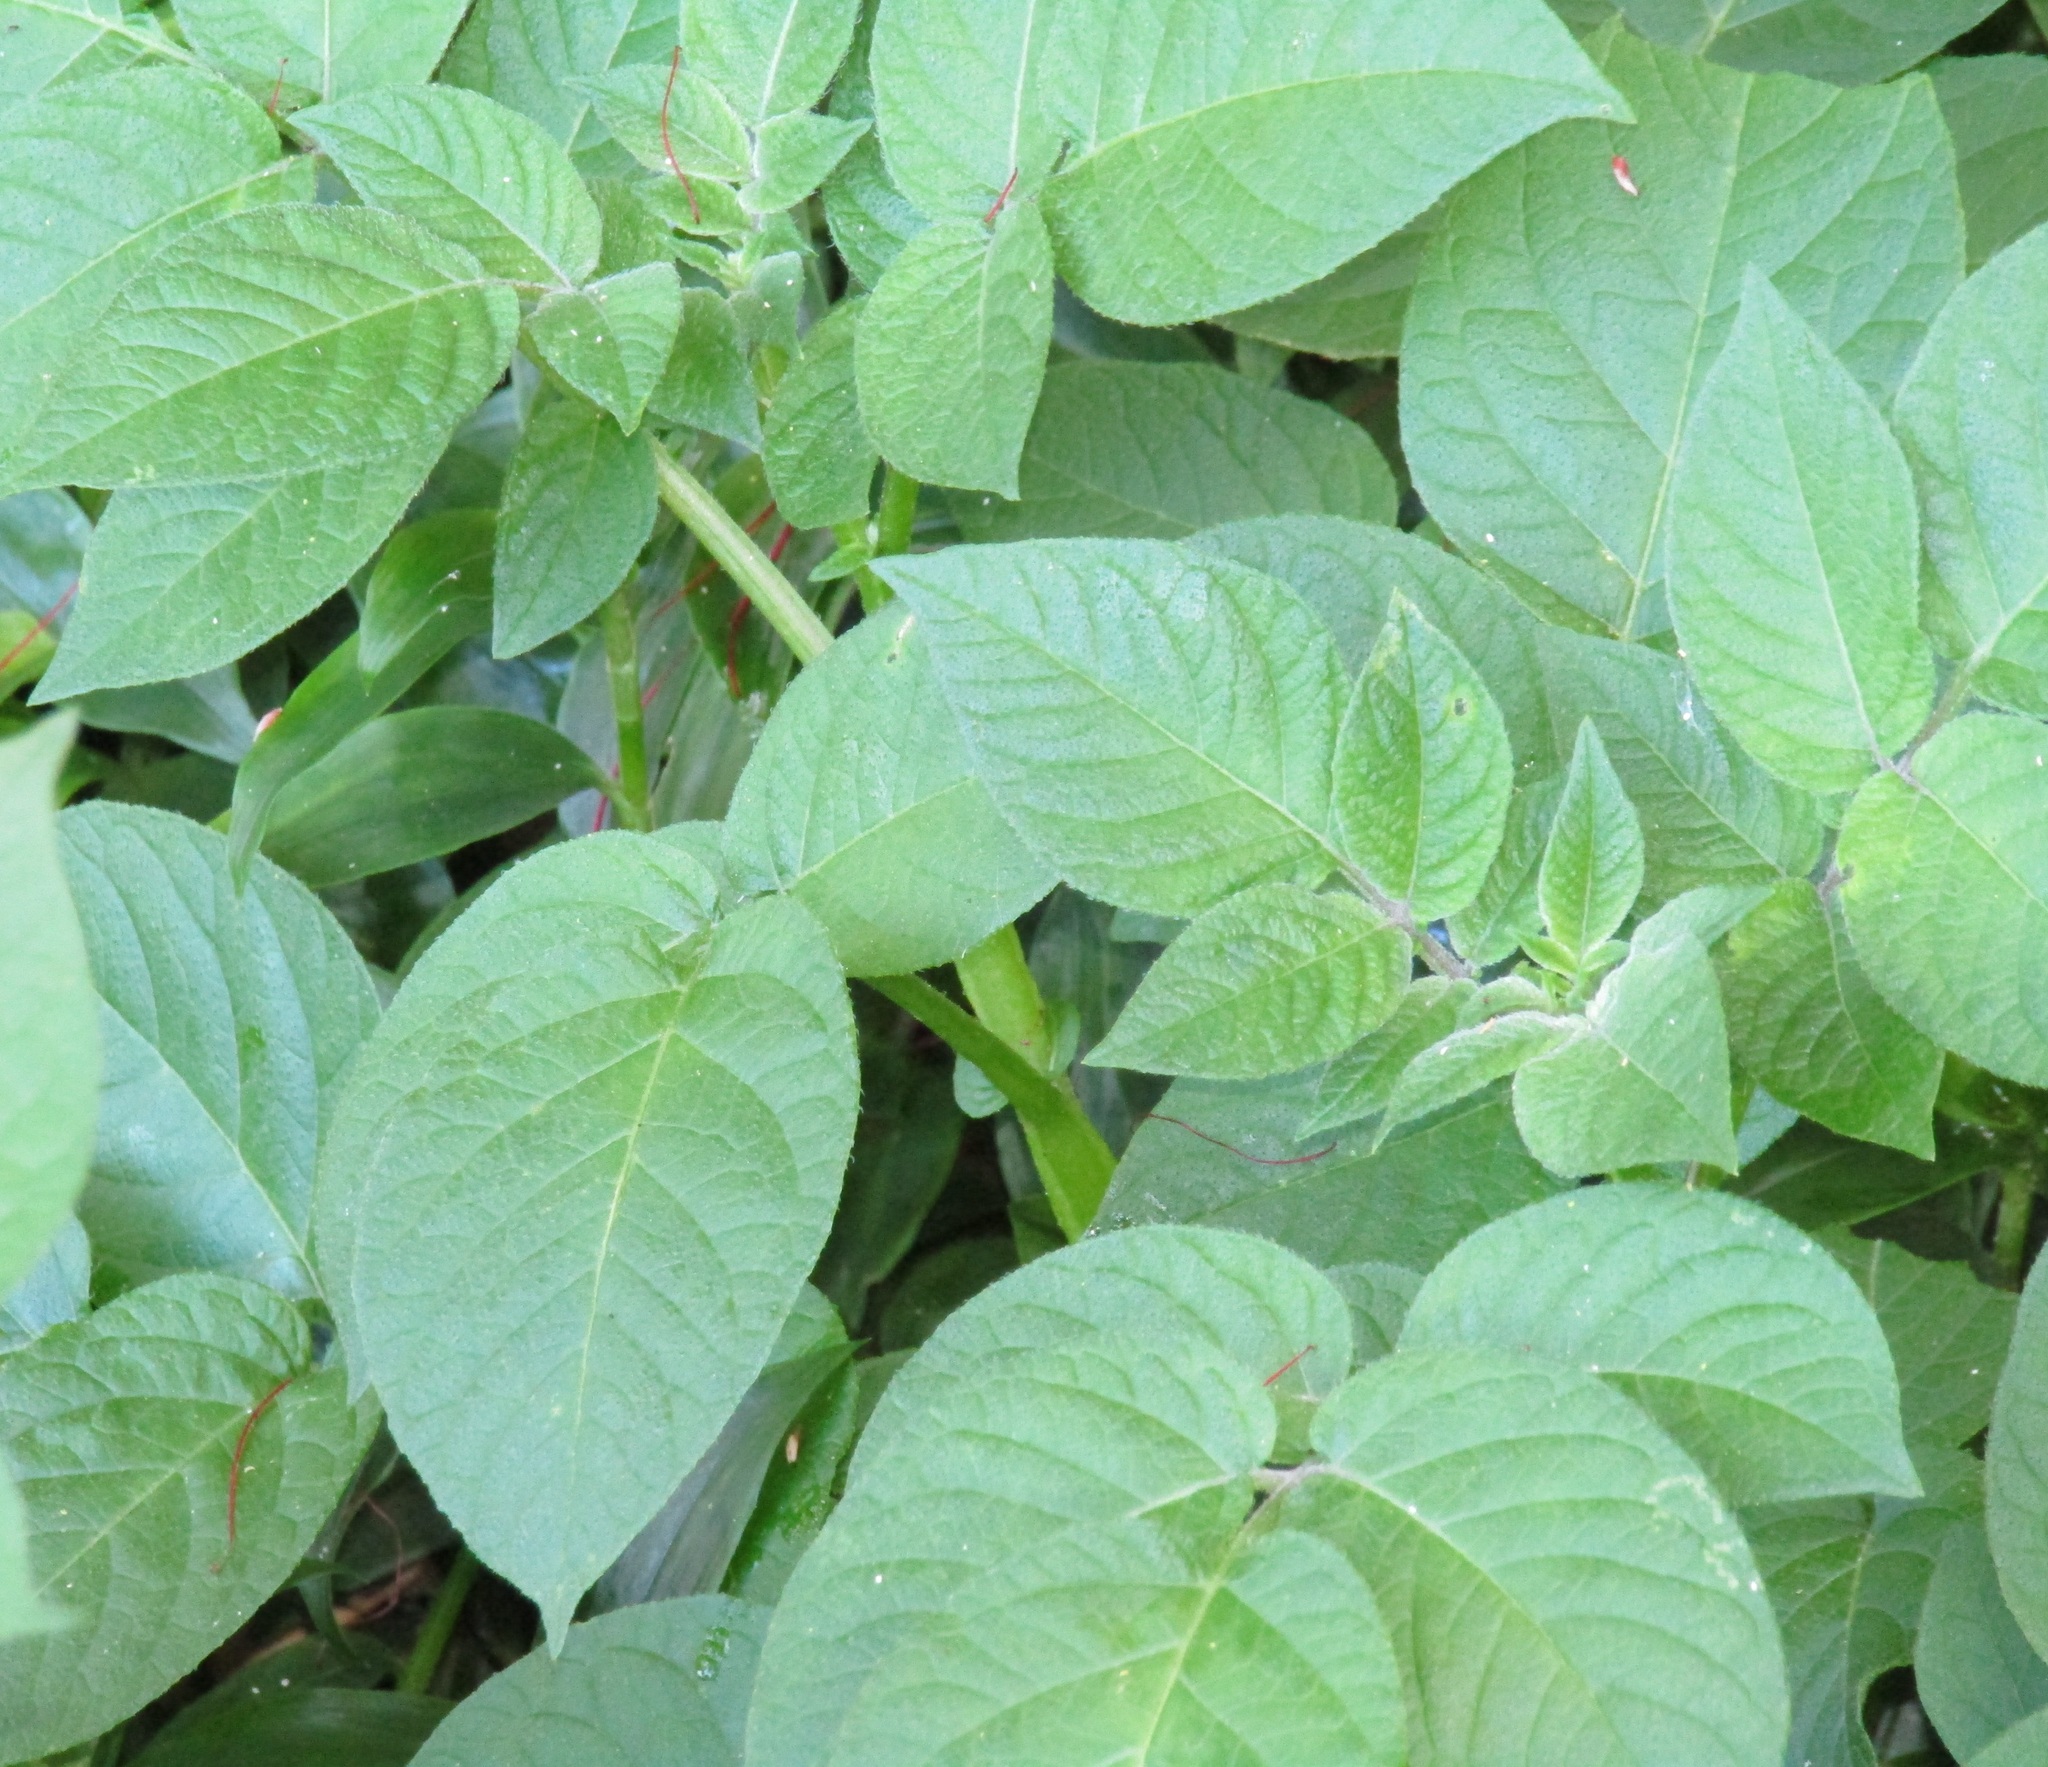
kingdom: Plantae
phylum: Tracheophyta
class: Magnoliopsida
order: Solanales
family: Solanaceae
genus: Solanum
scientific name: Solanum tuberosum
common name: Potato
